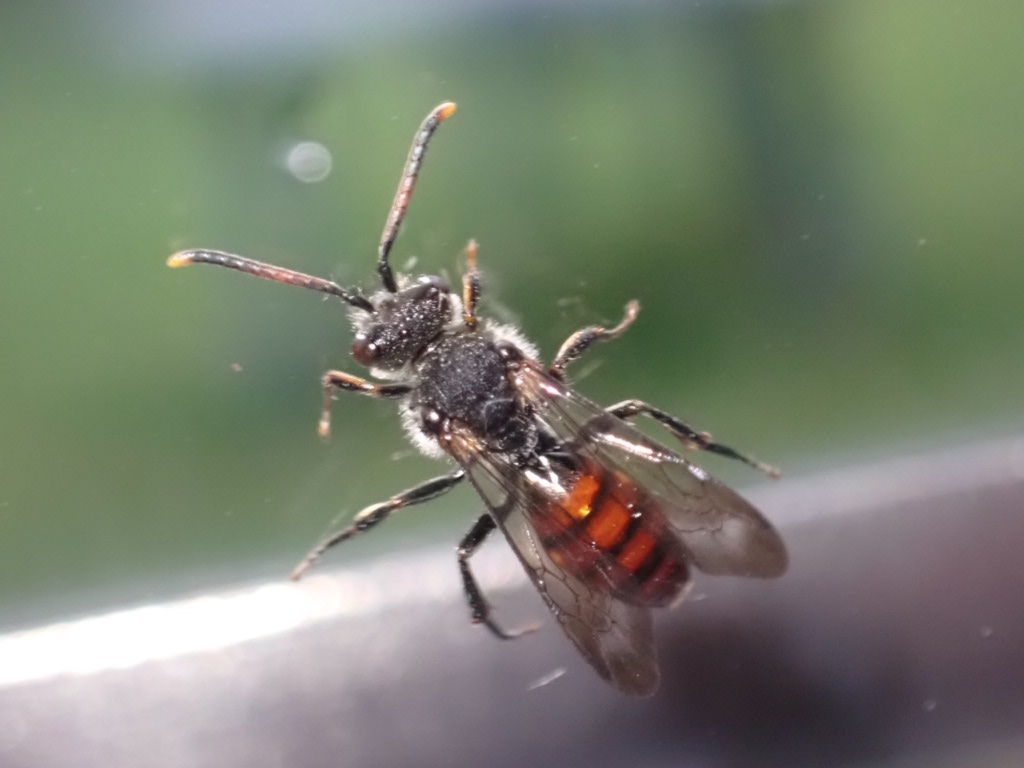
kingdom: Animalia
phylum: Arthropoda
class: Insecta
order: Hymenoptera
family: Apidae
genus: Nomada
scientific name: Nomada fabriciana
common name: Fabricius' nomad bee
